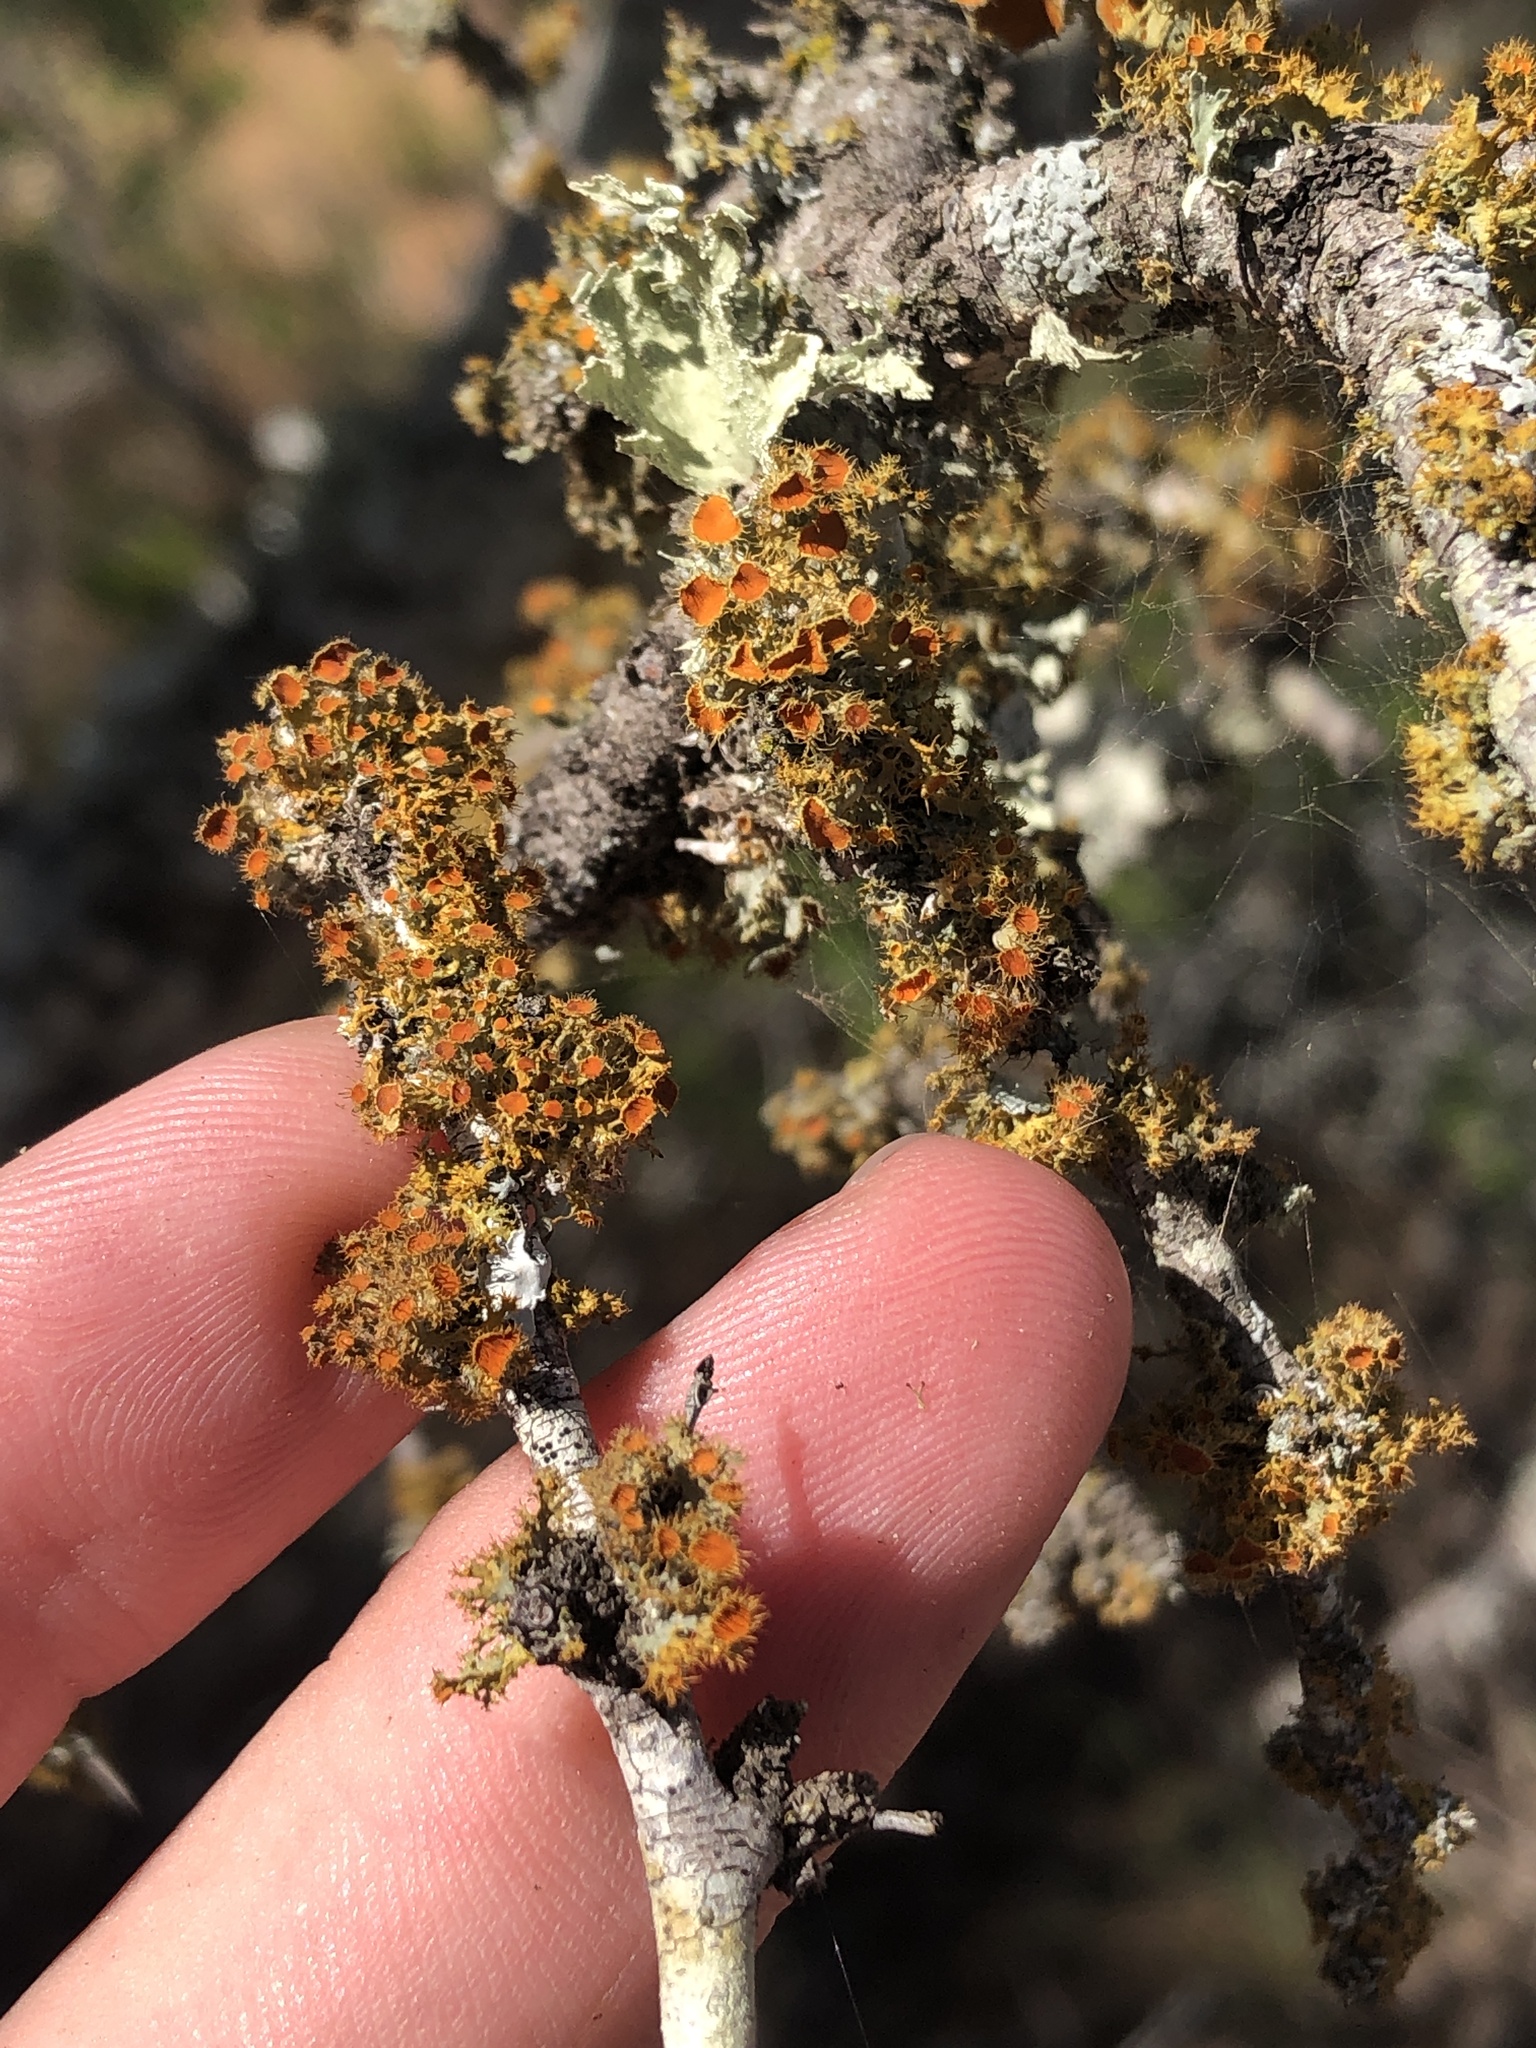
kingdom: Fungi
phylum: Ascomycota
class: Lecanoromycetes
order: Teloschistales
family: Teloschistaceae
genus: Niorma
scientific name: Niorma chrysophthalma
